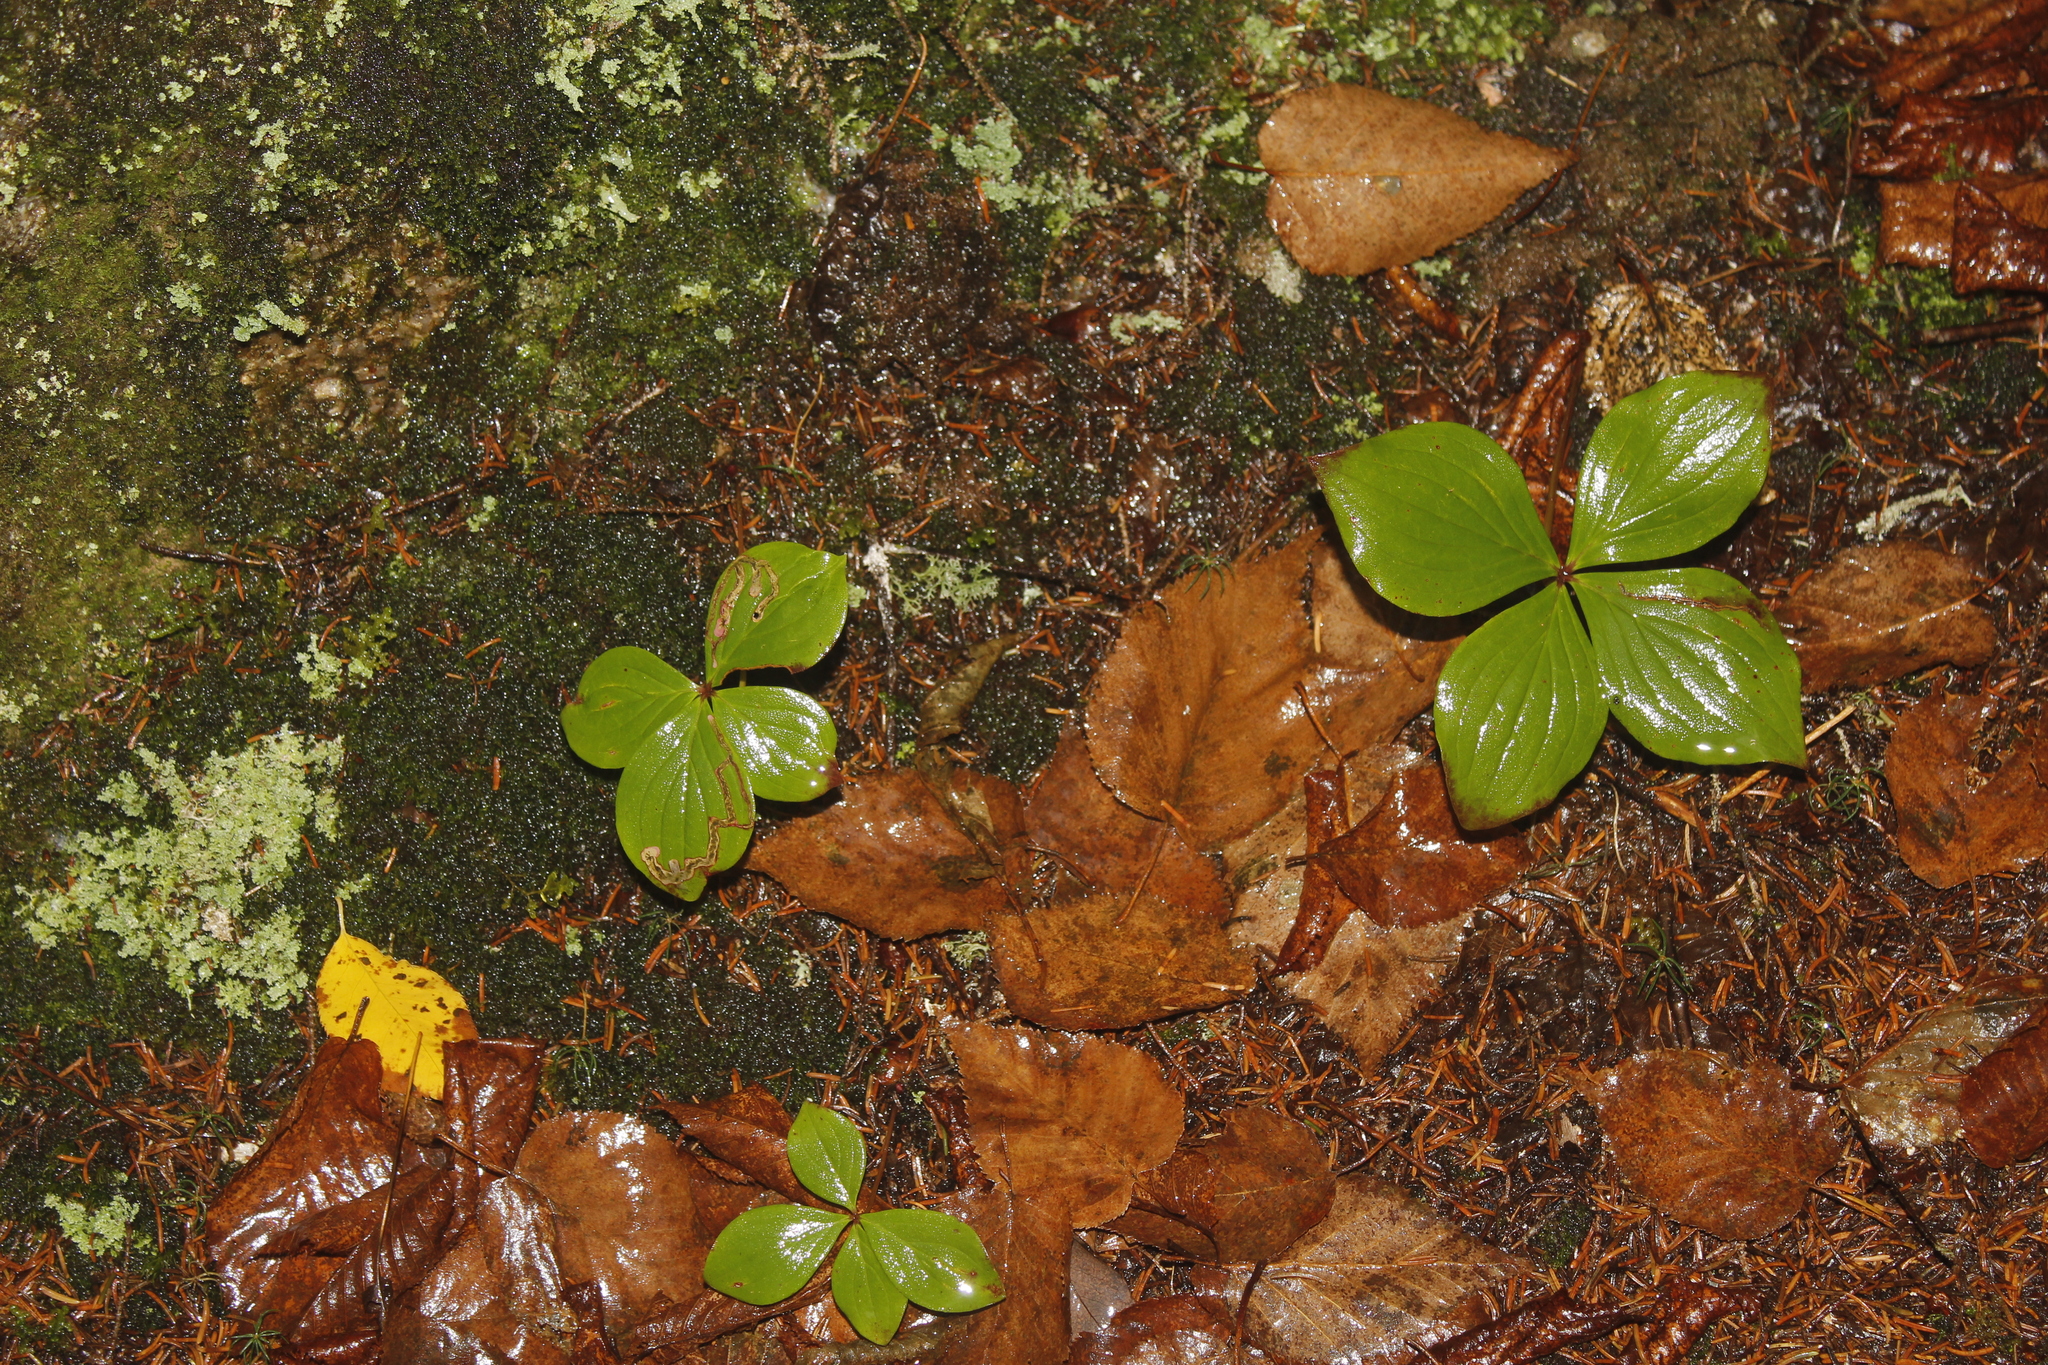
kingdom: Plantae
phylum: Tracheophyta
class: Magnoliopsida
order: Cornales
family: Cornaceae
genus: Cornus
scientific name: Cornus canadensis
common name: Creeping dogwood
